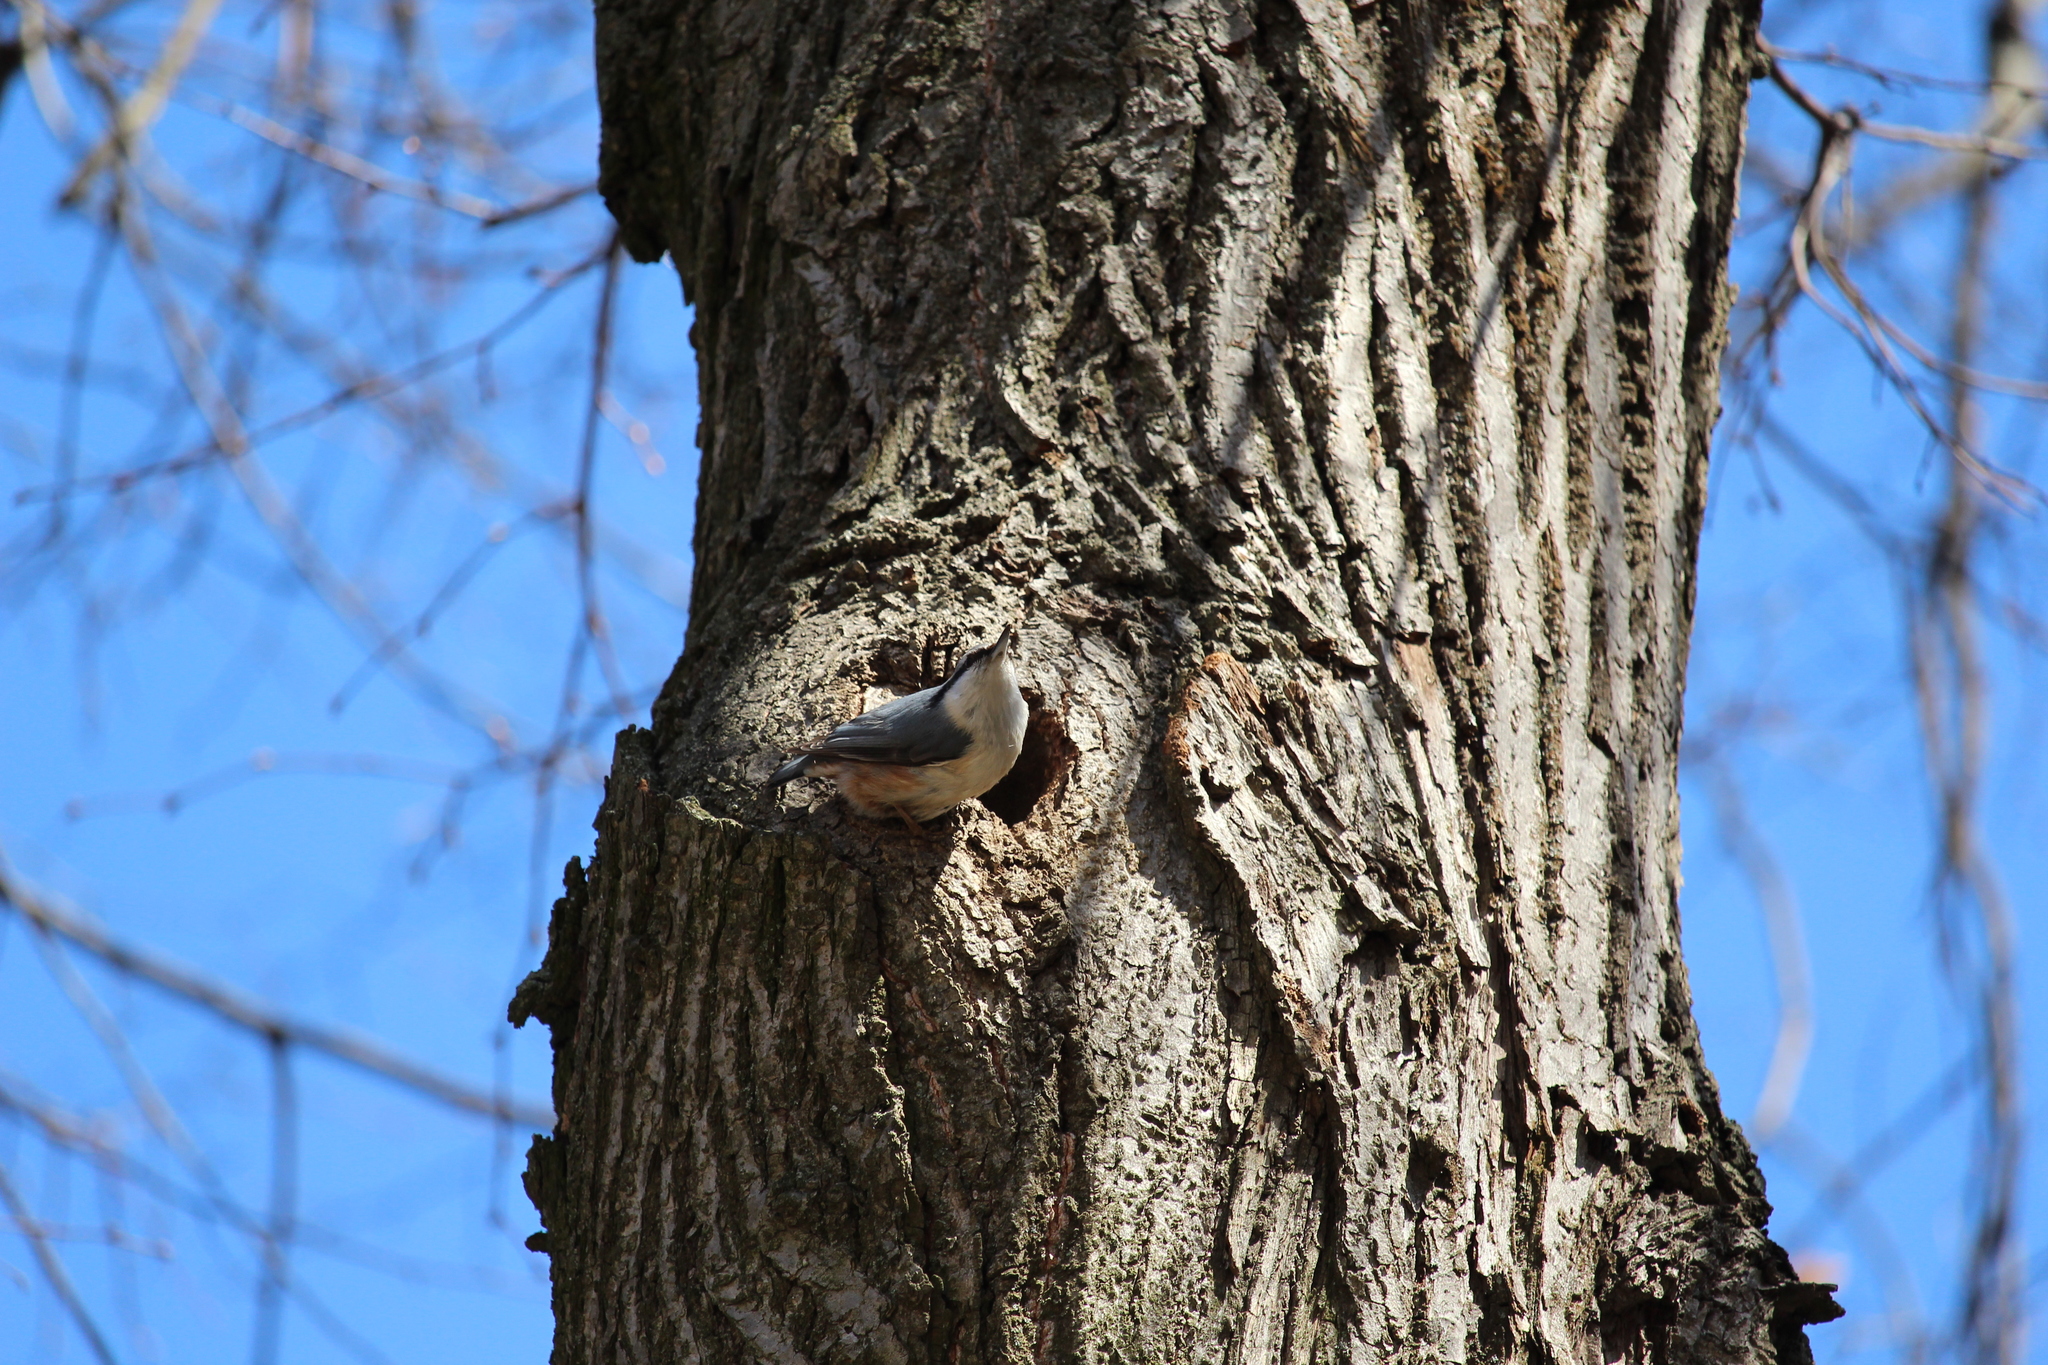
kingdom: Animalia
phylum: Chordata
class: Aves
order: Passeriformes
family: Sittidae
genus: Sitta
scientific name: Sitta europaea
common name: Eurasian nuthatch
